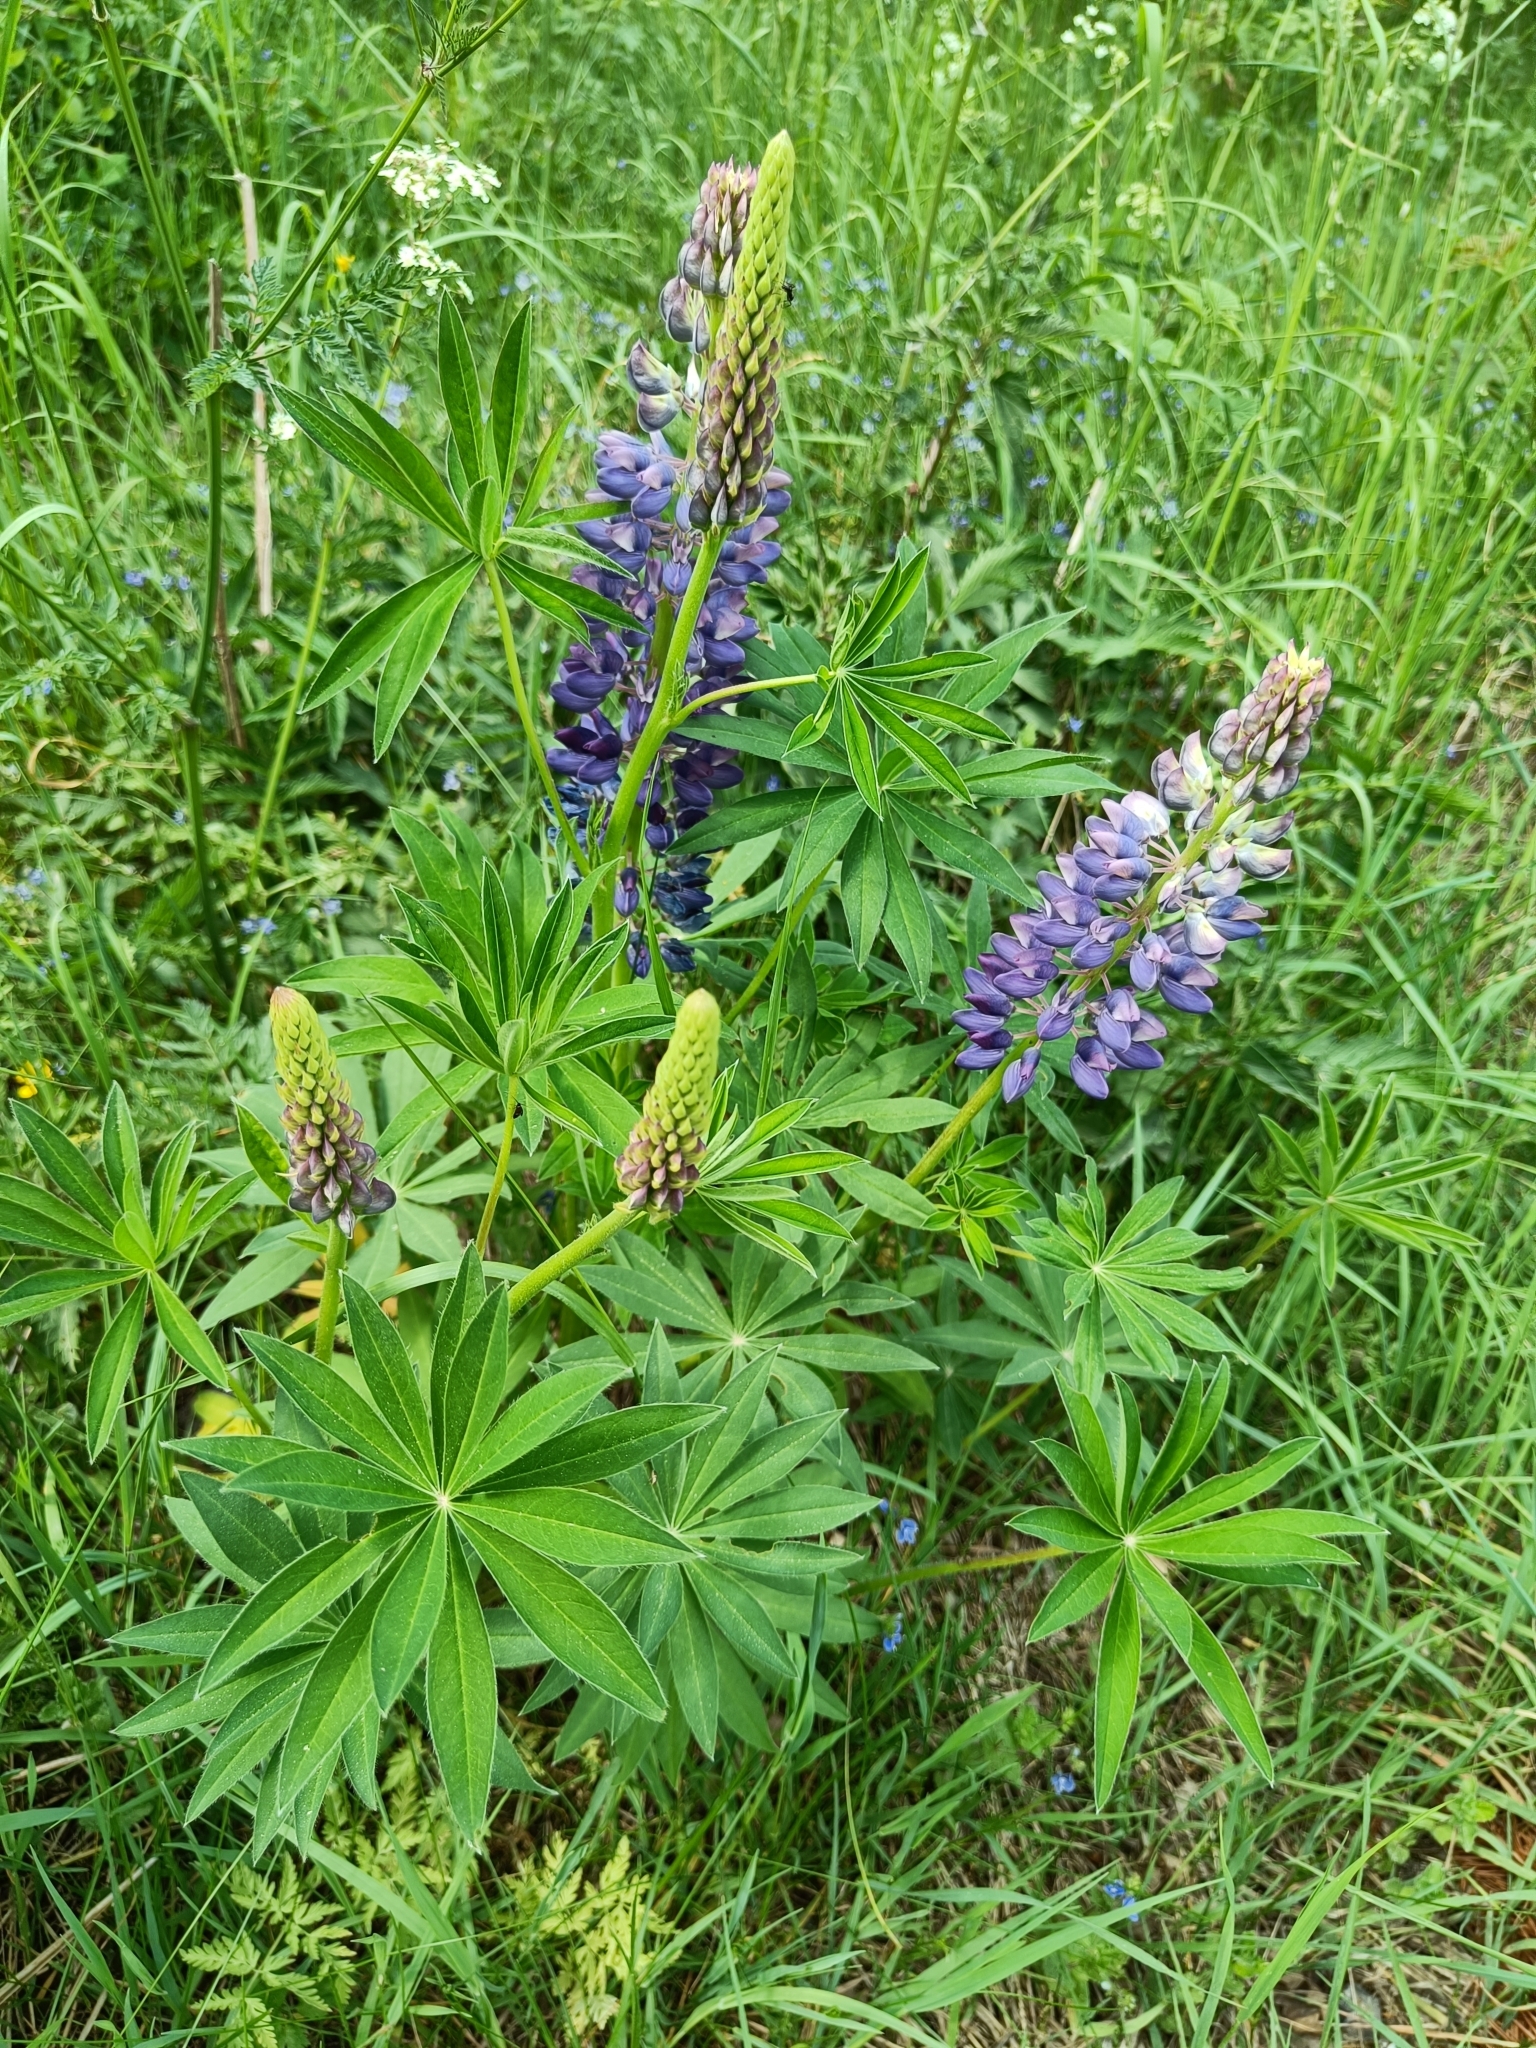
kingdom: Plantae
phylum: Tracheophyta
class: Magnoliopsida
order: Fabales
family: Fabaceae
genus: Lupinus
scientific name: Lupinus polyphyllus
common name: Garden lupin
